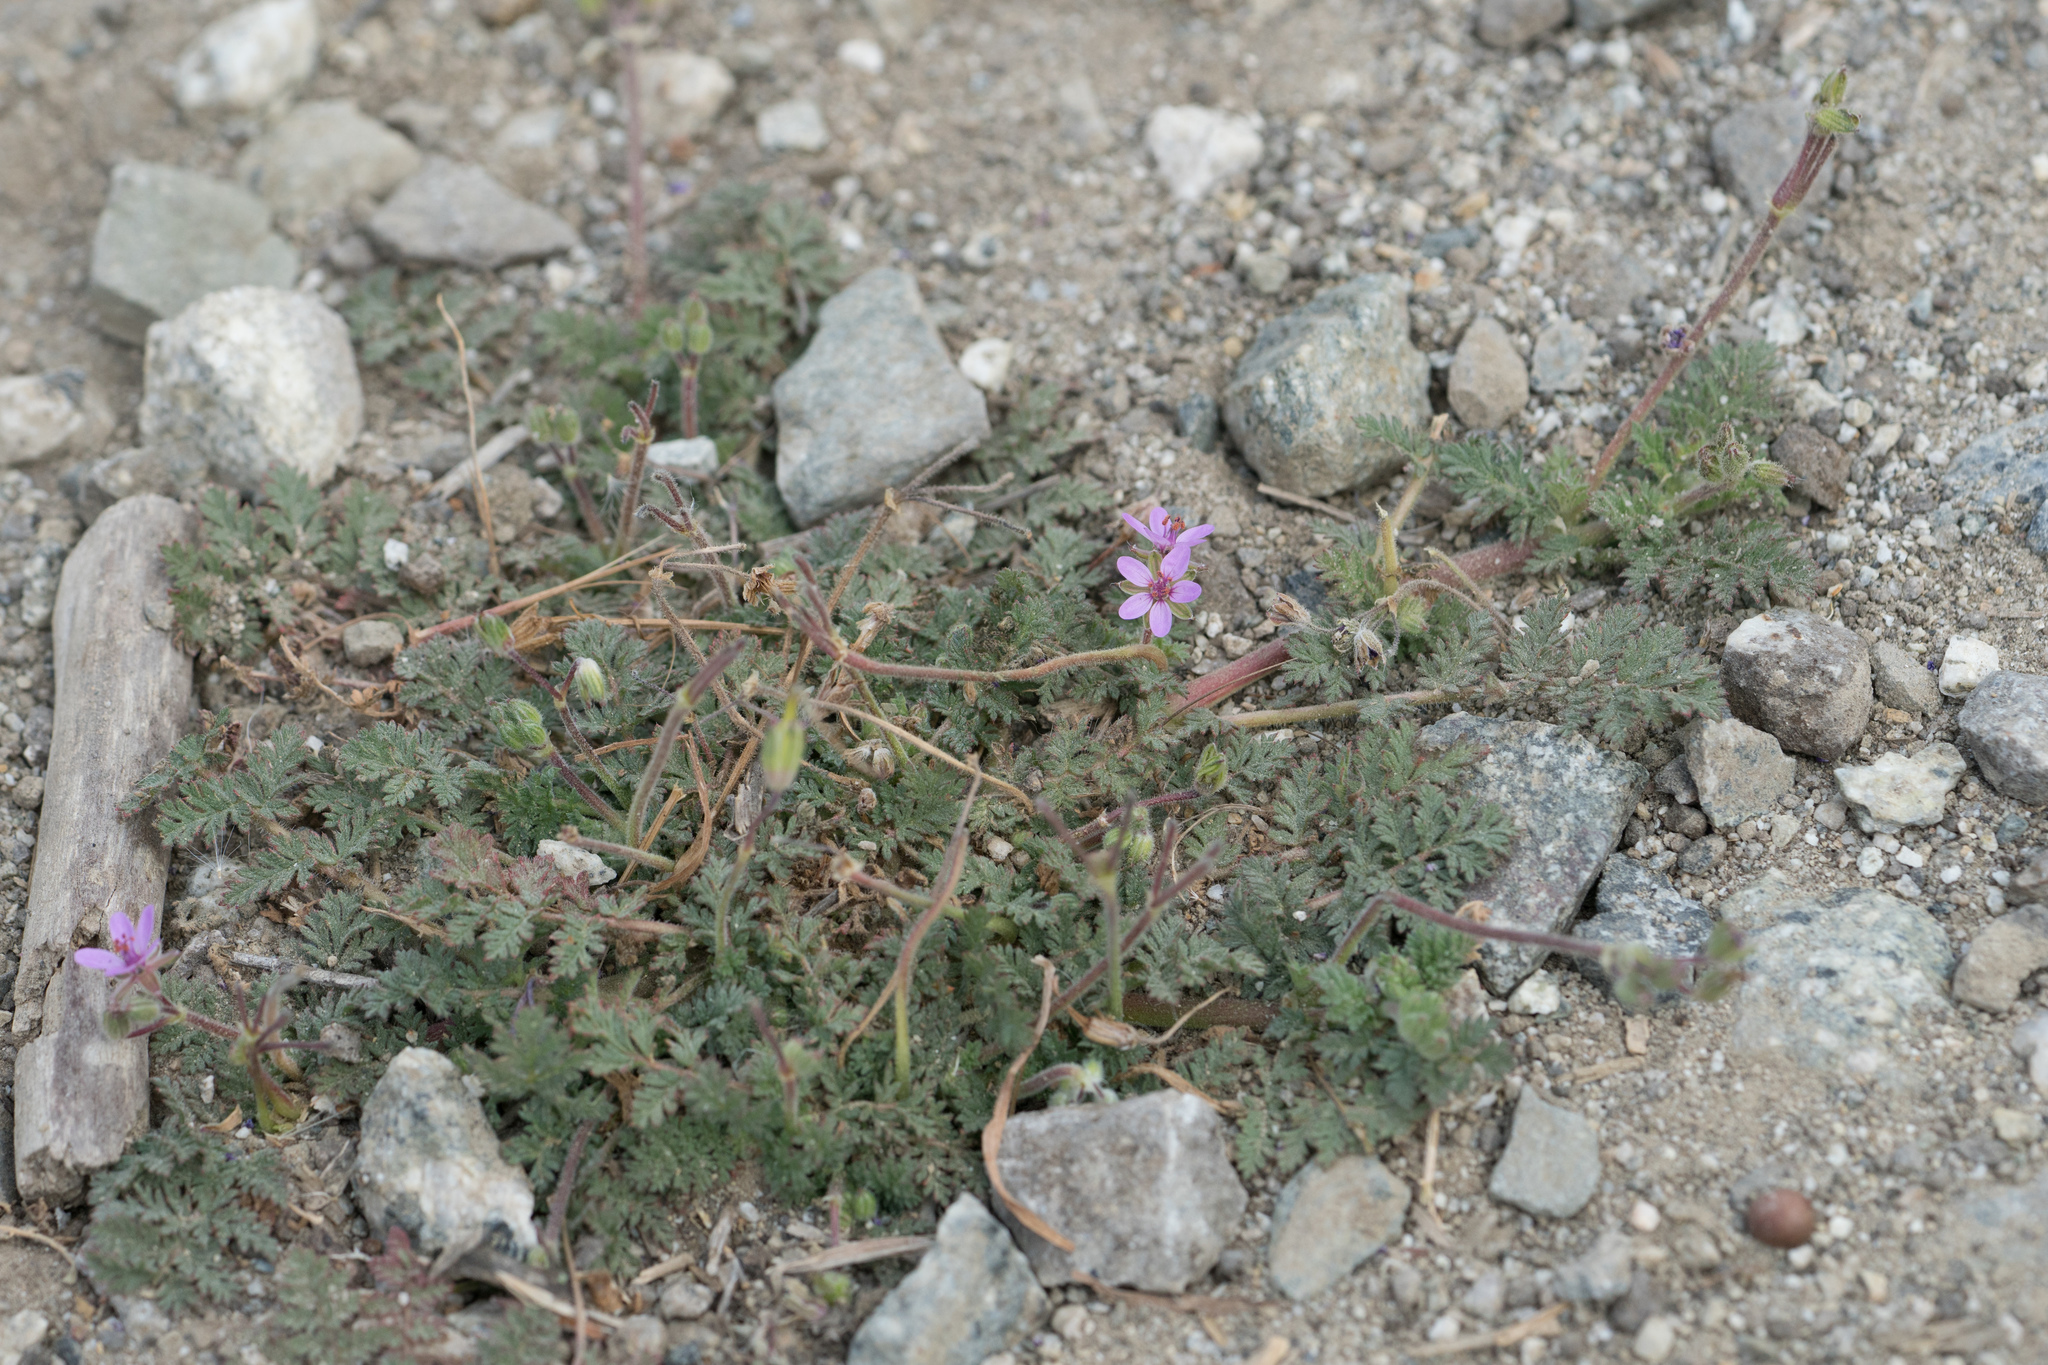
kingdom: Plantae
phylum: Tracheophyta
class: Magnoliopsida
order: Geraniales
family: Geraniaceae
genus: Erodium
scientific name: Erodium cicutarium
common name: Common stork's-bill
